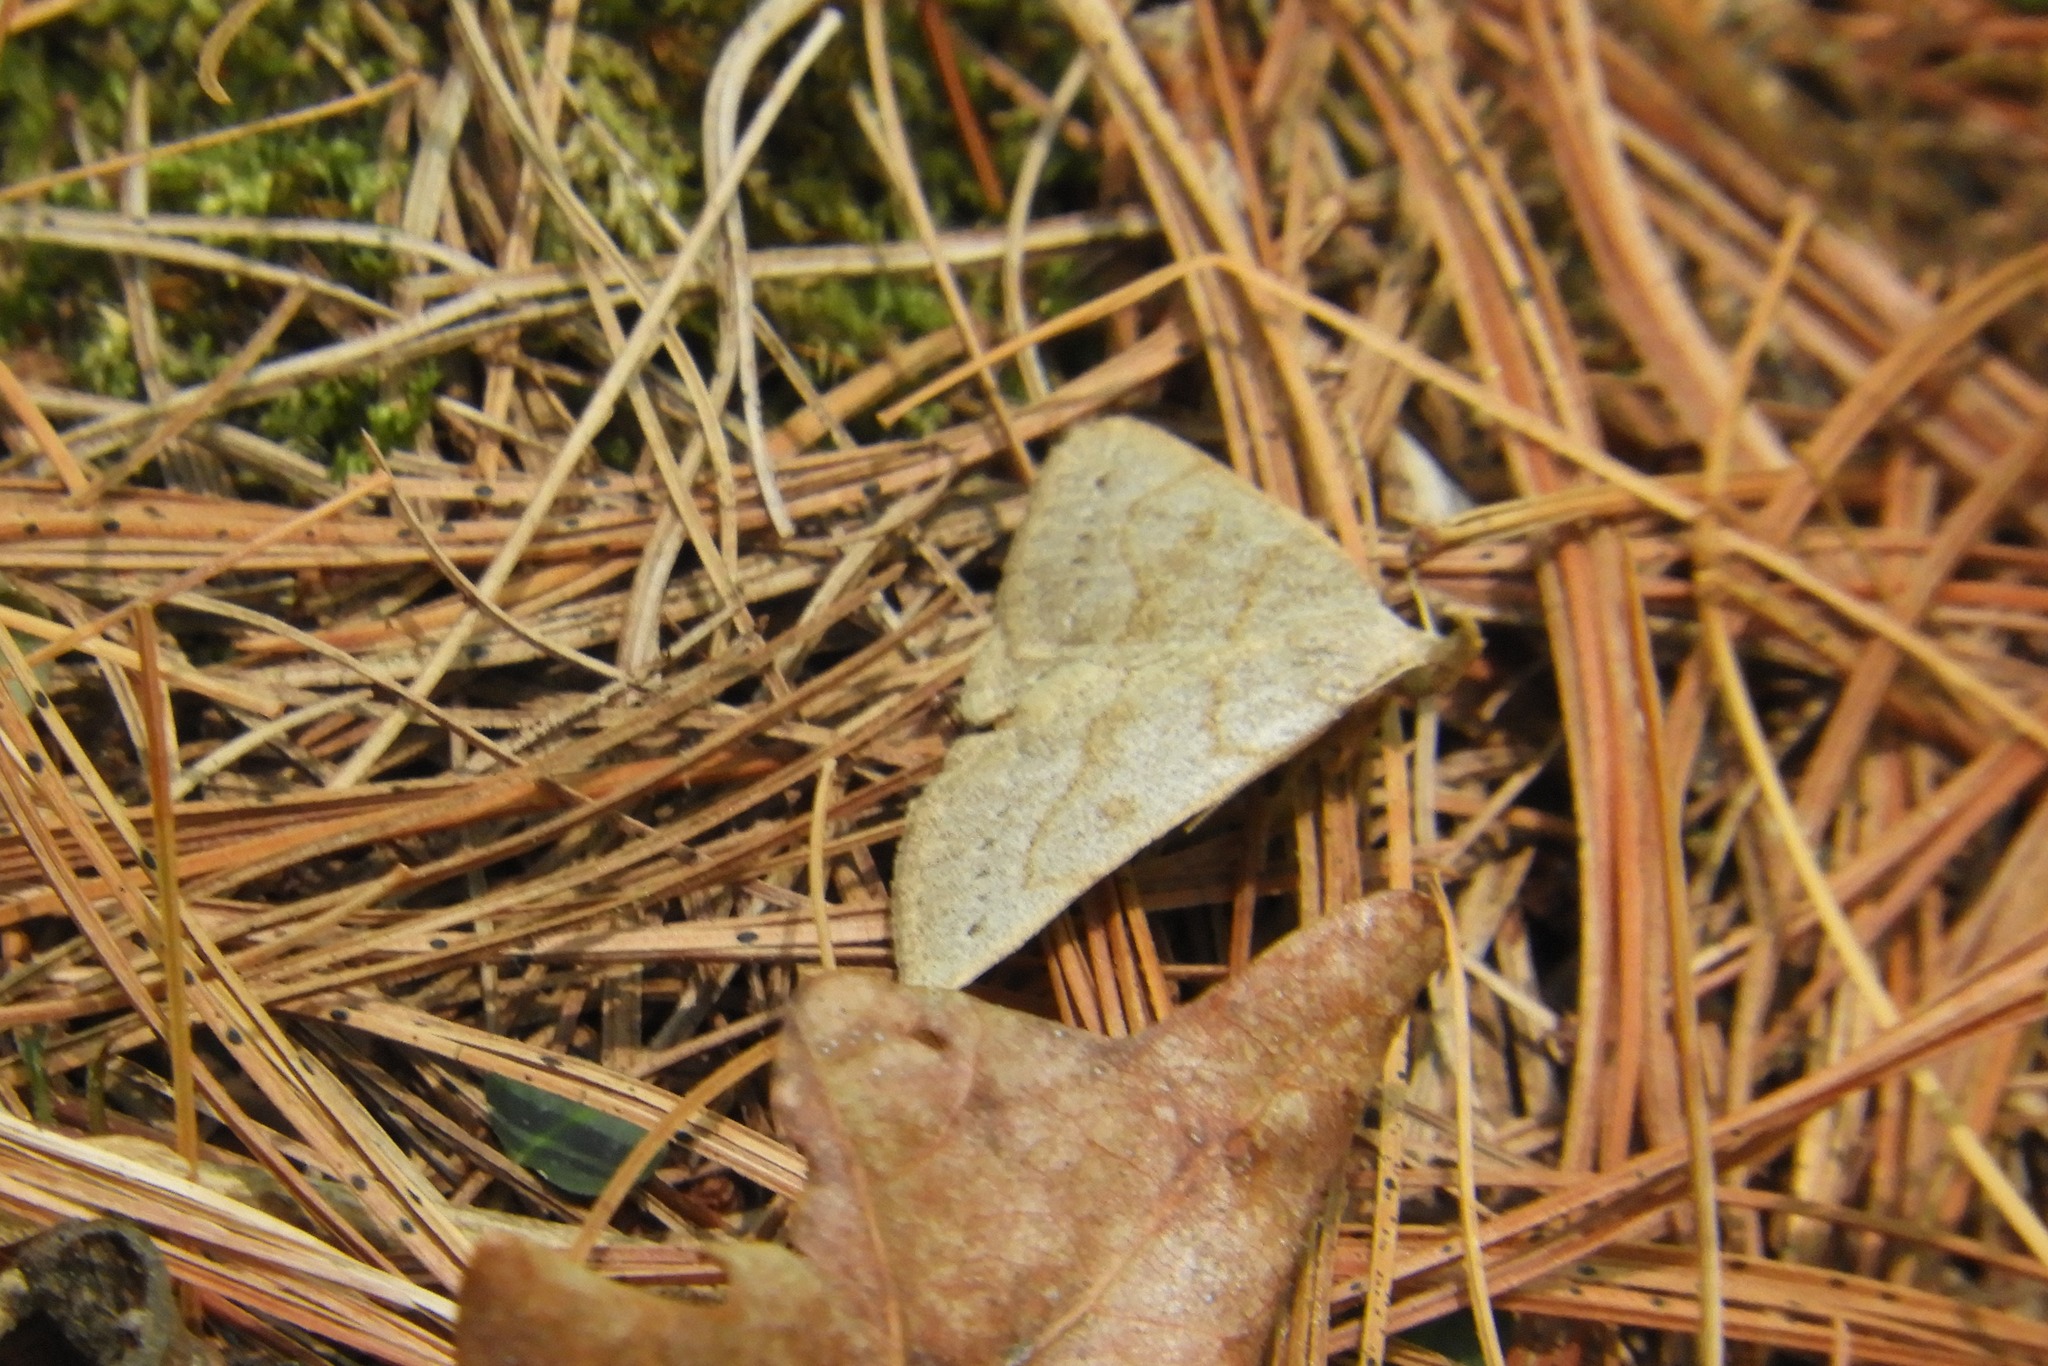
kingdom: Animalia
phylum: Arthropoda
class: Insecta
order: Lepidoptera
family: Erebidae
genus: Macrochilo
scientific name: Macrochilo morbidalis
